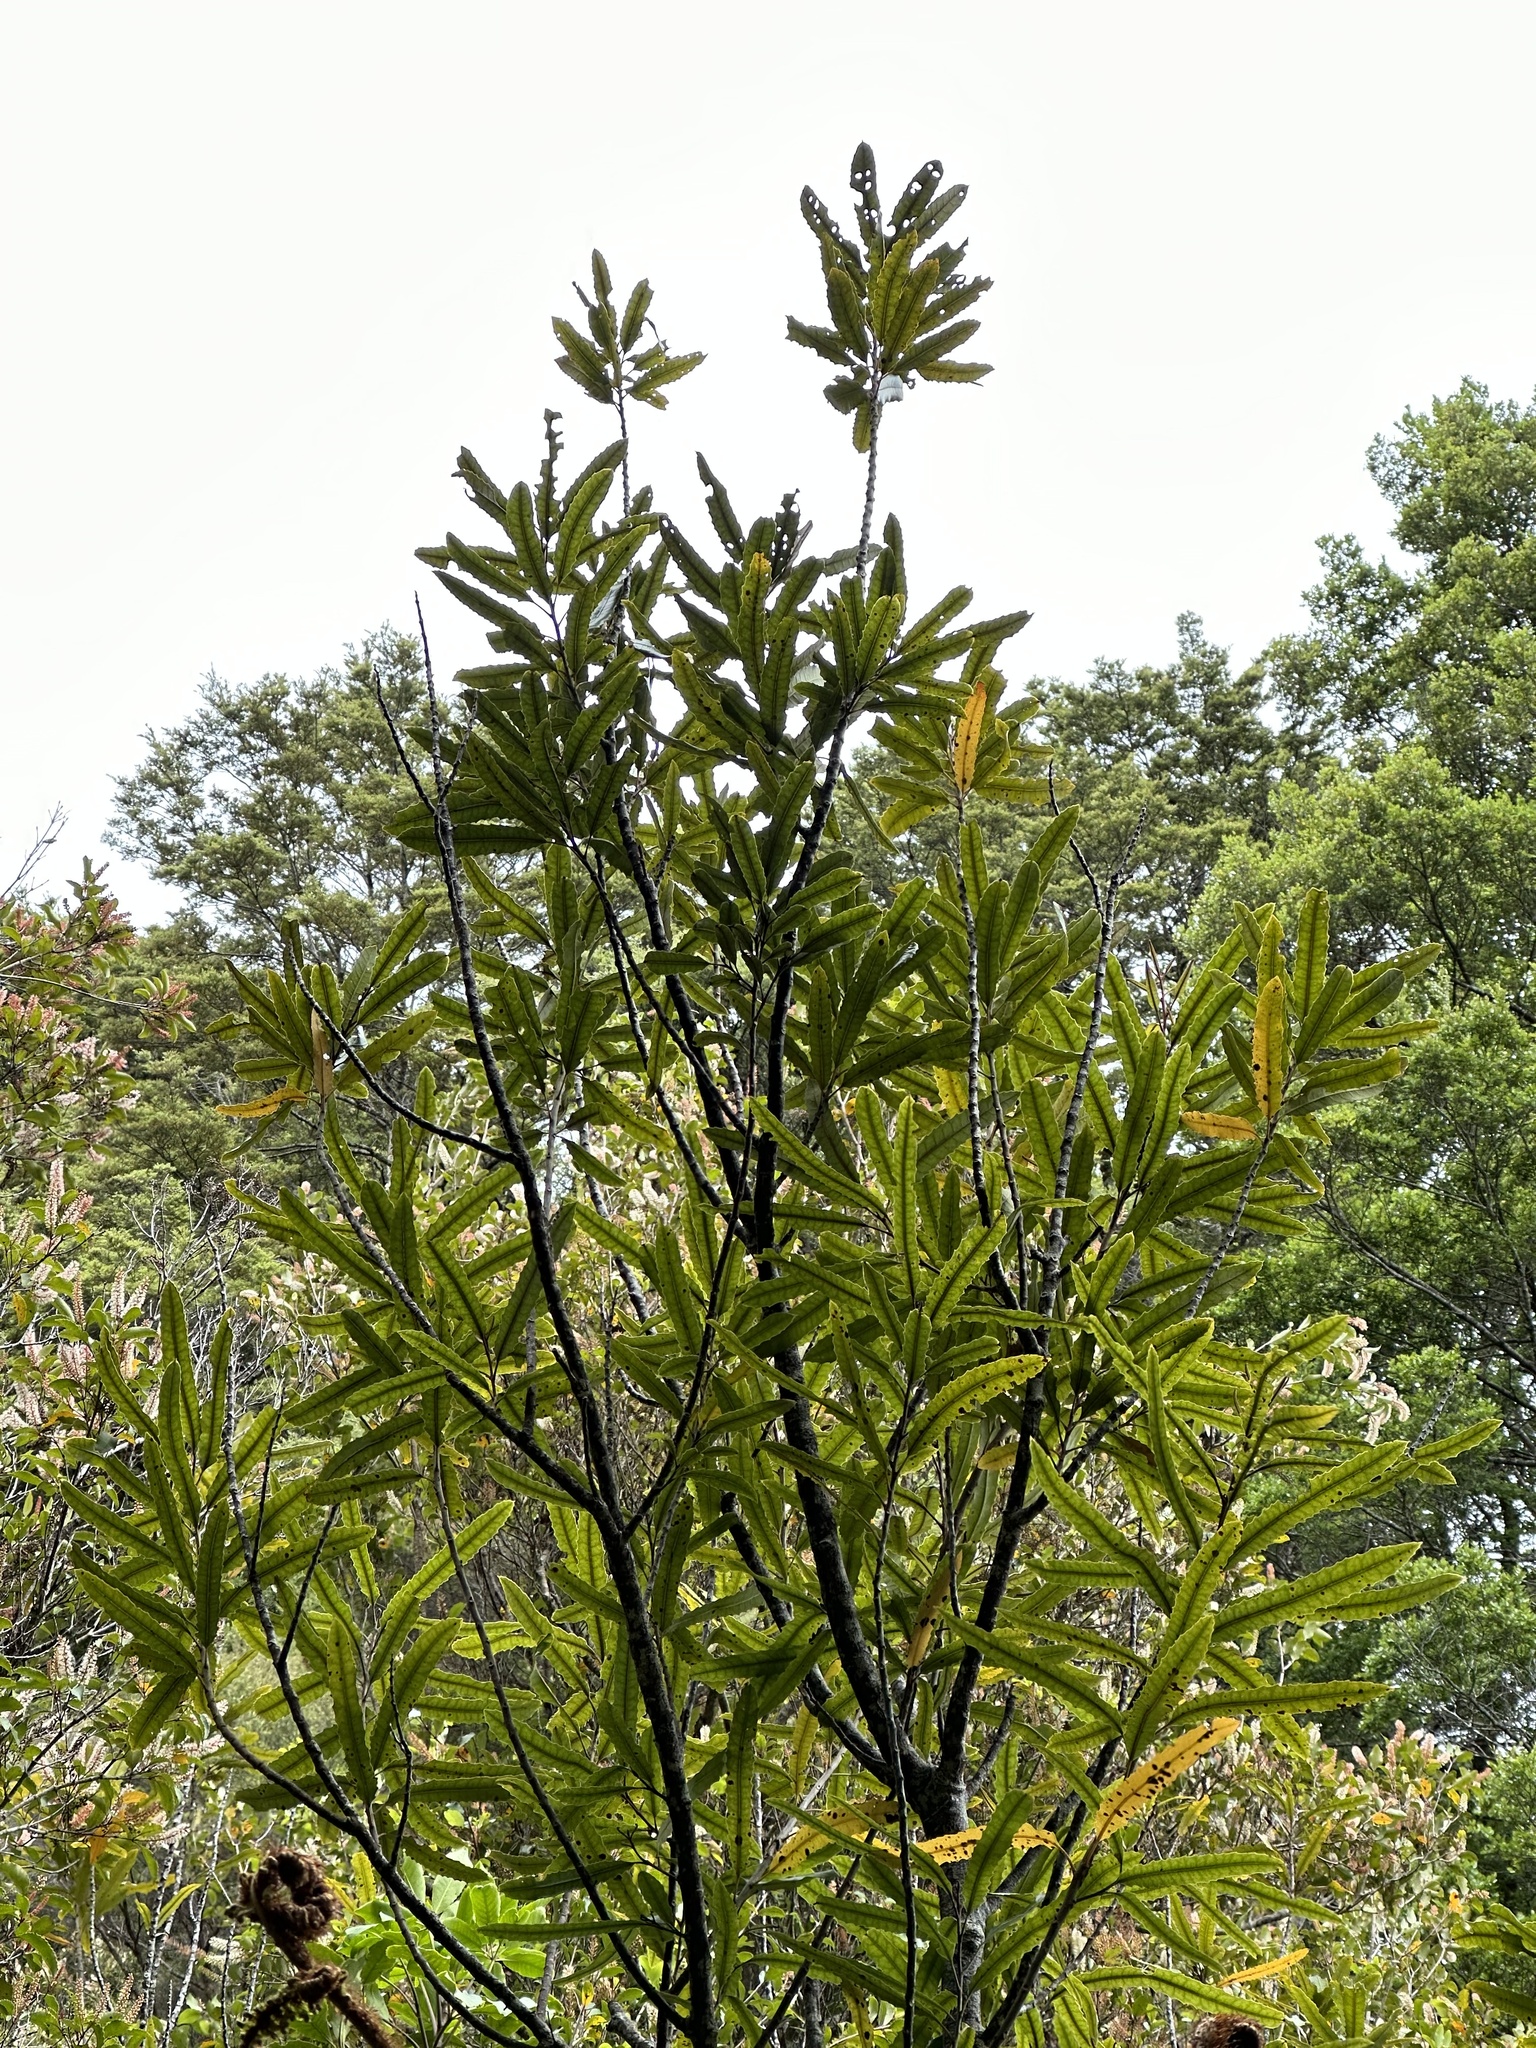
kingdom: Plantae
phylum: Tracheophyta
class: Magnoliopsida
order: Proteales
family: Proteaceae
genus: Knightia
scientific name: Knightia excelsa
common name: New zealand-honeysuckle
